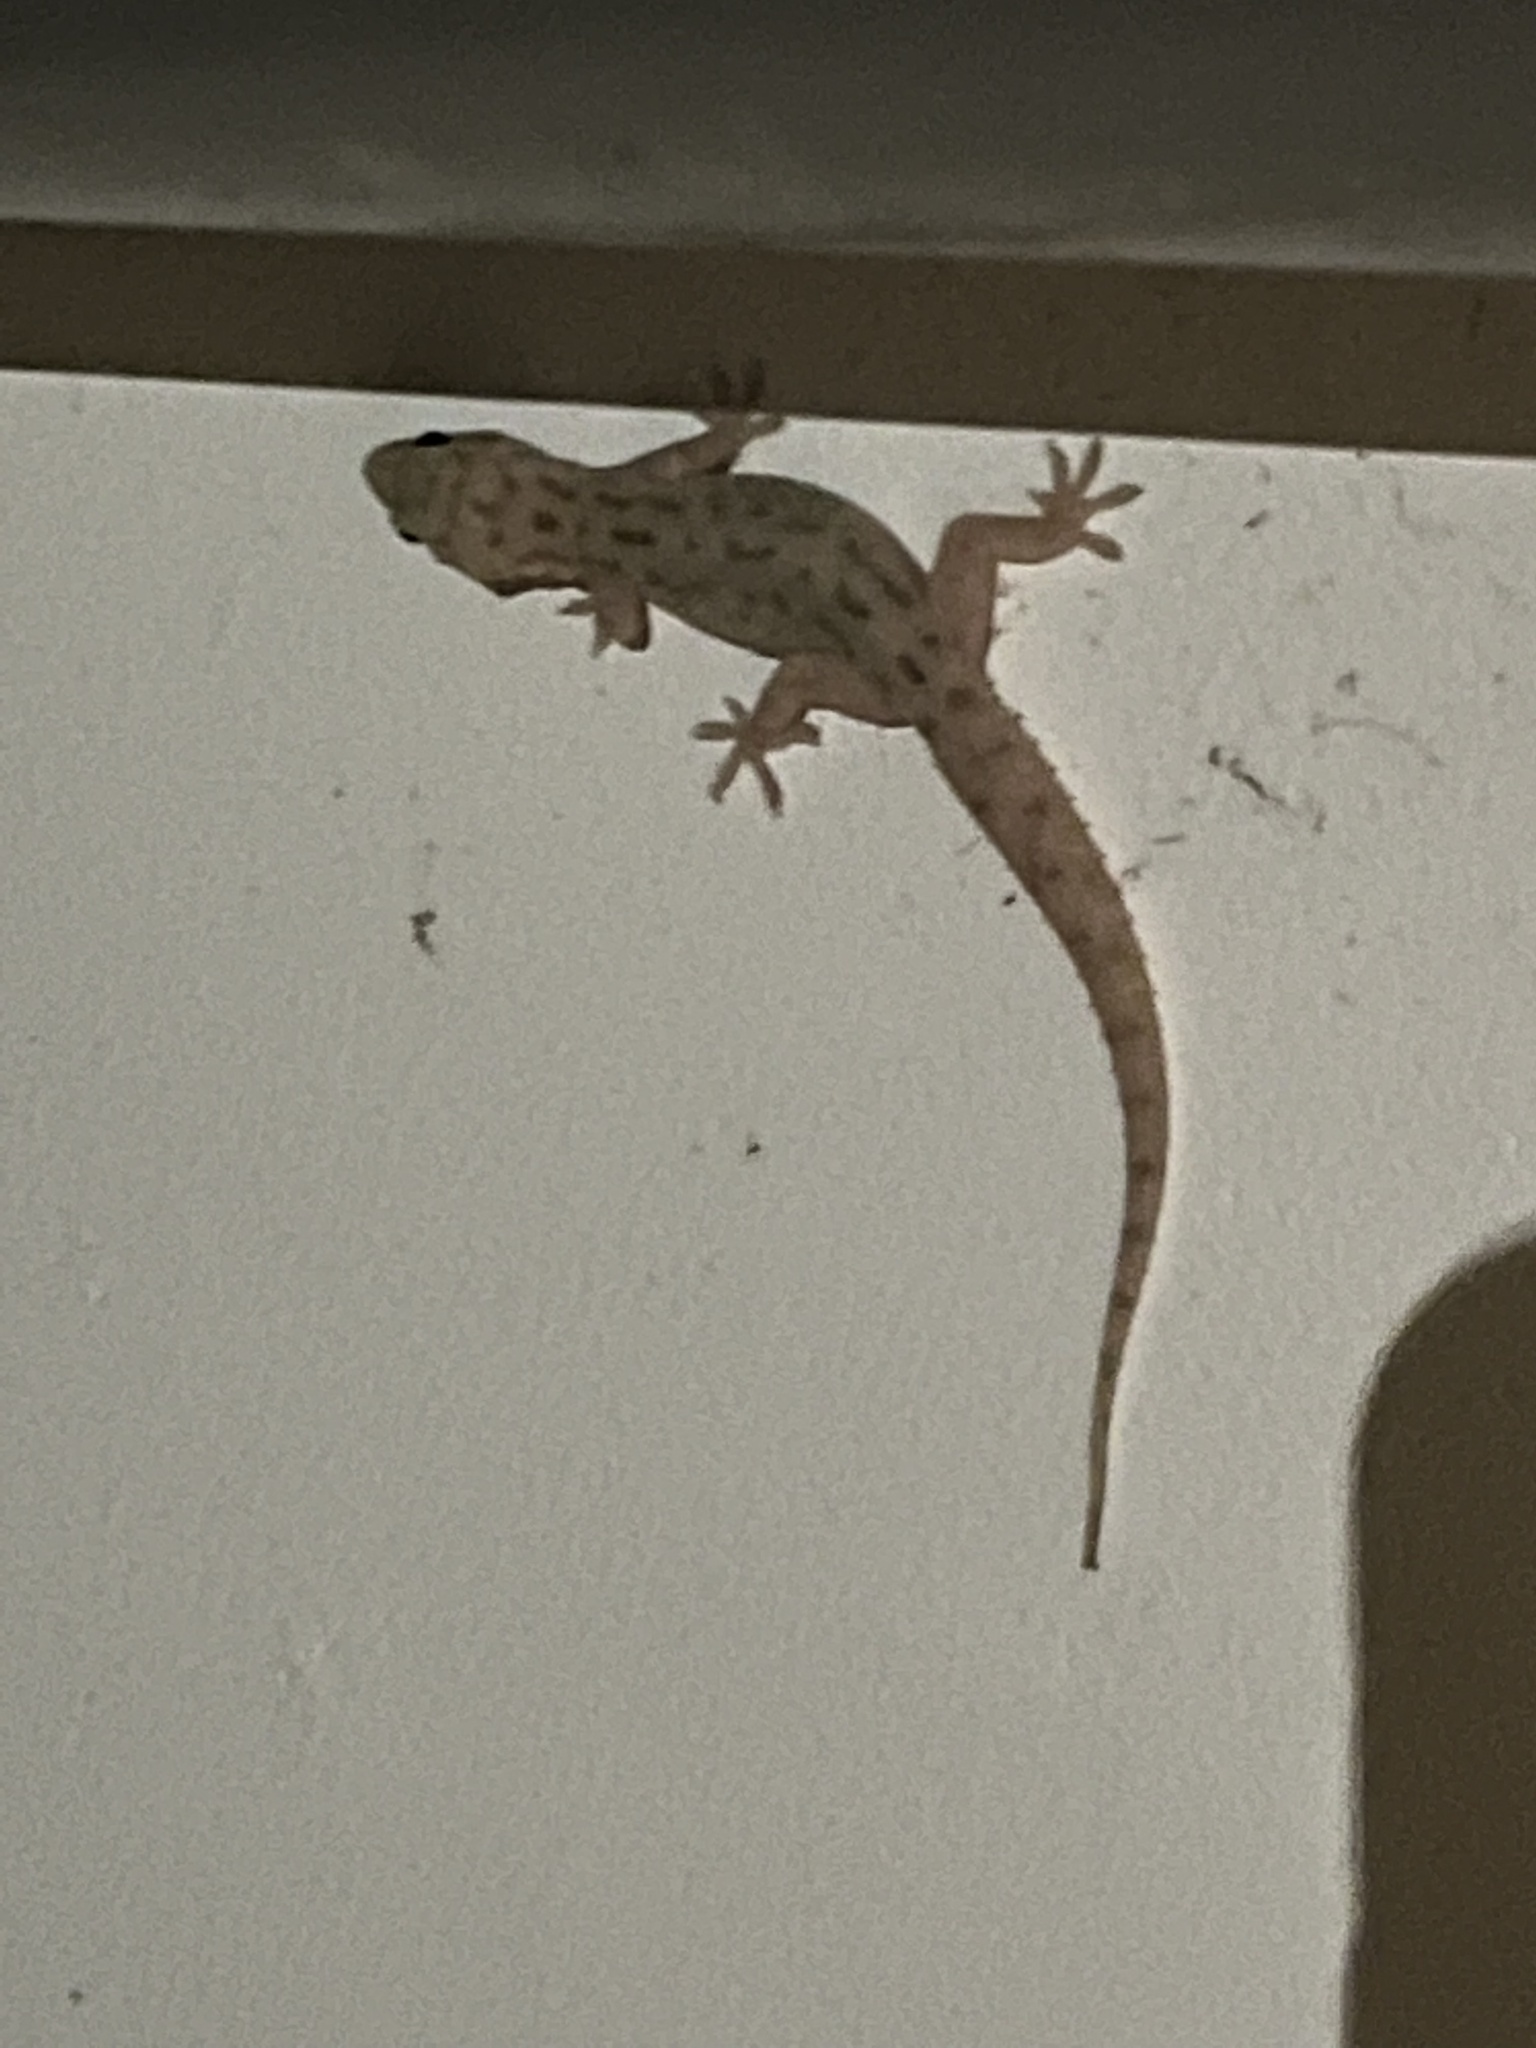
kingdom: Animalia
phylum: Chordata
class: Squamata
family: Gekkonidae
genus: Hemidactylus
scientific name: Hemidactylus parvimaculatus
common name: Spotted house gecko
